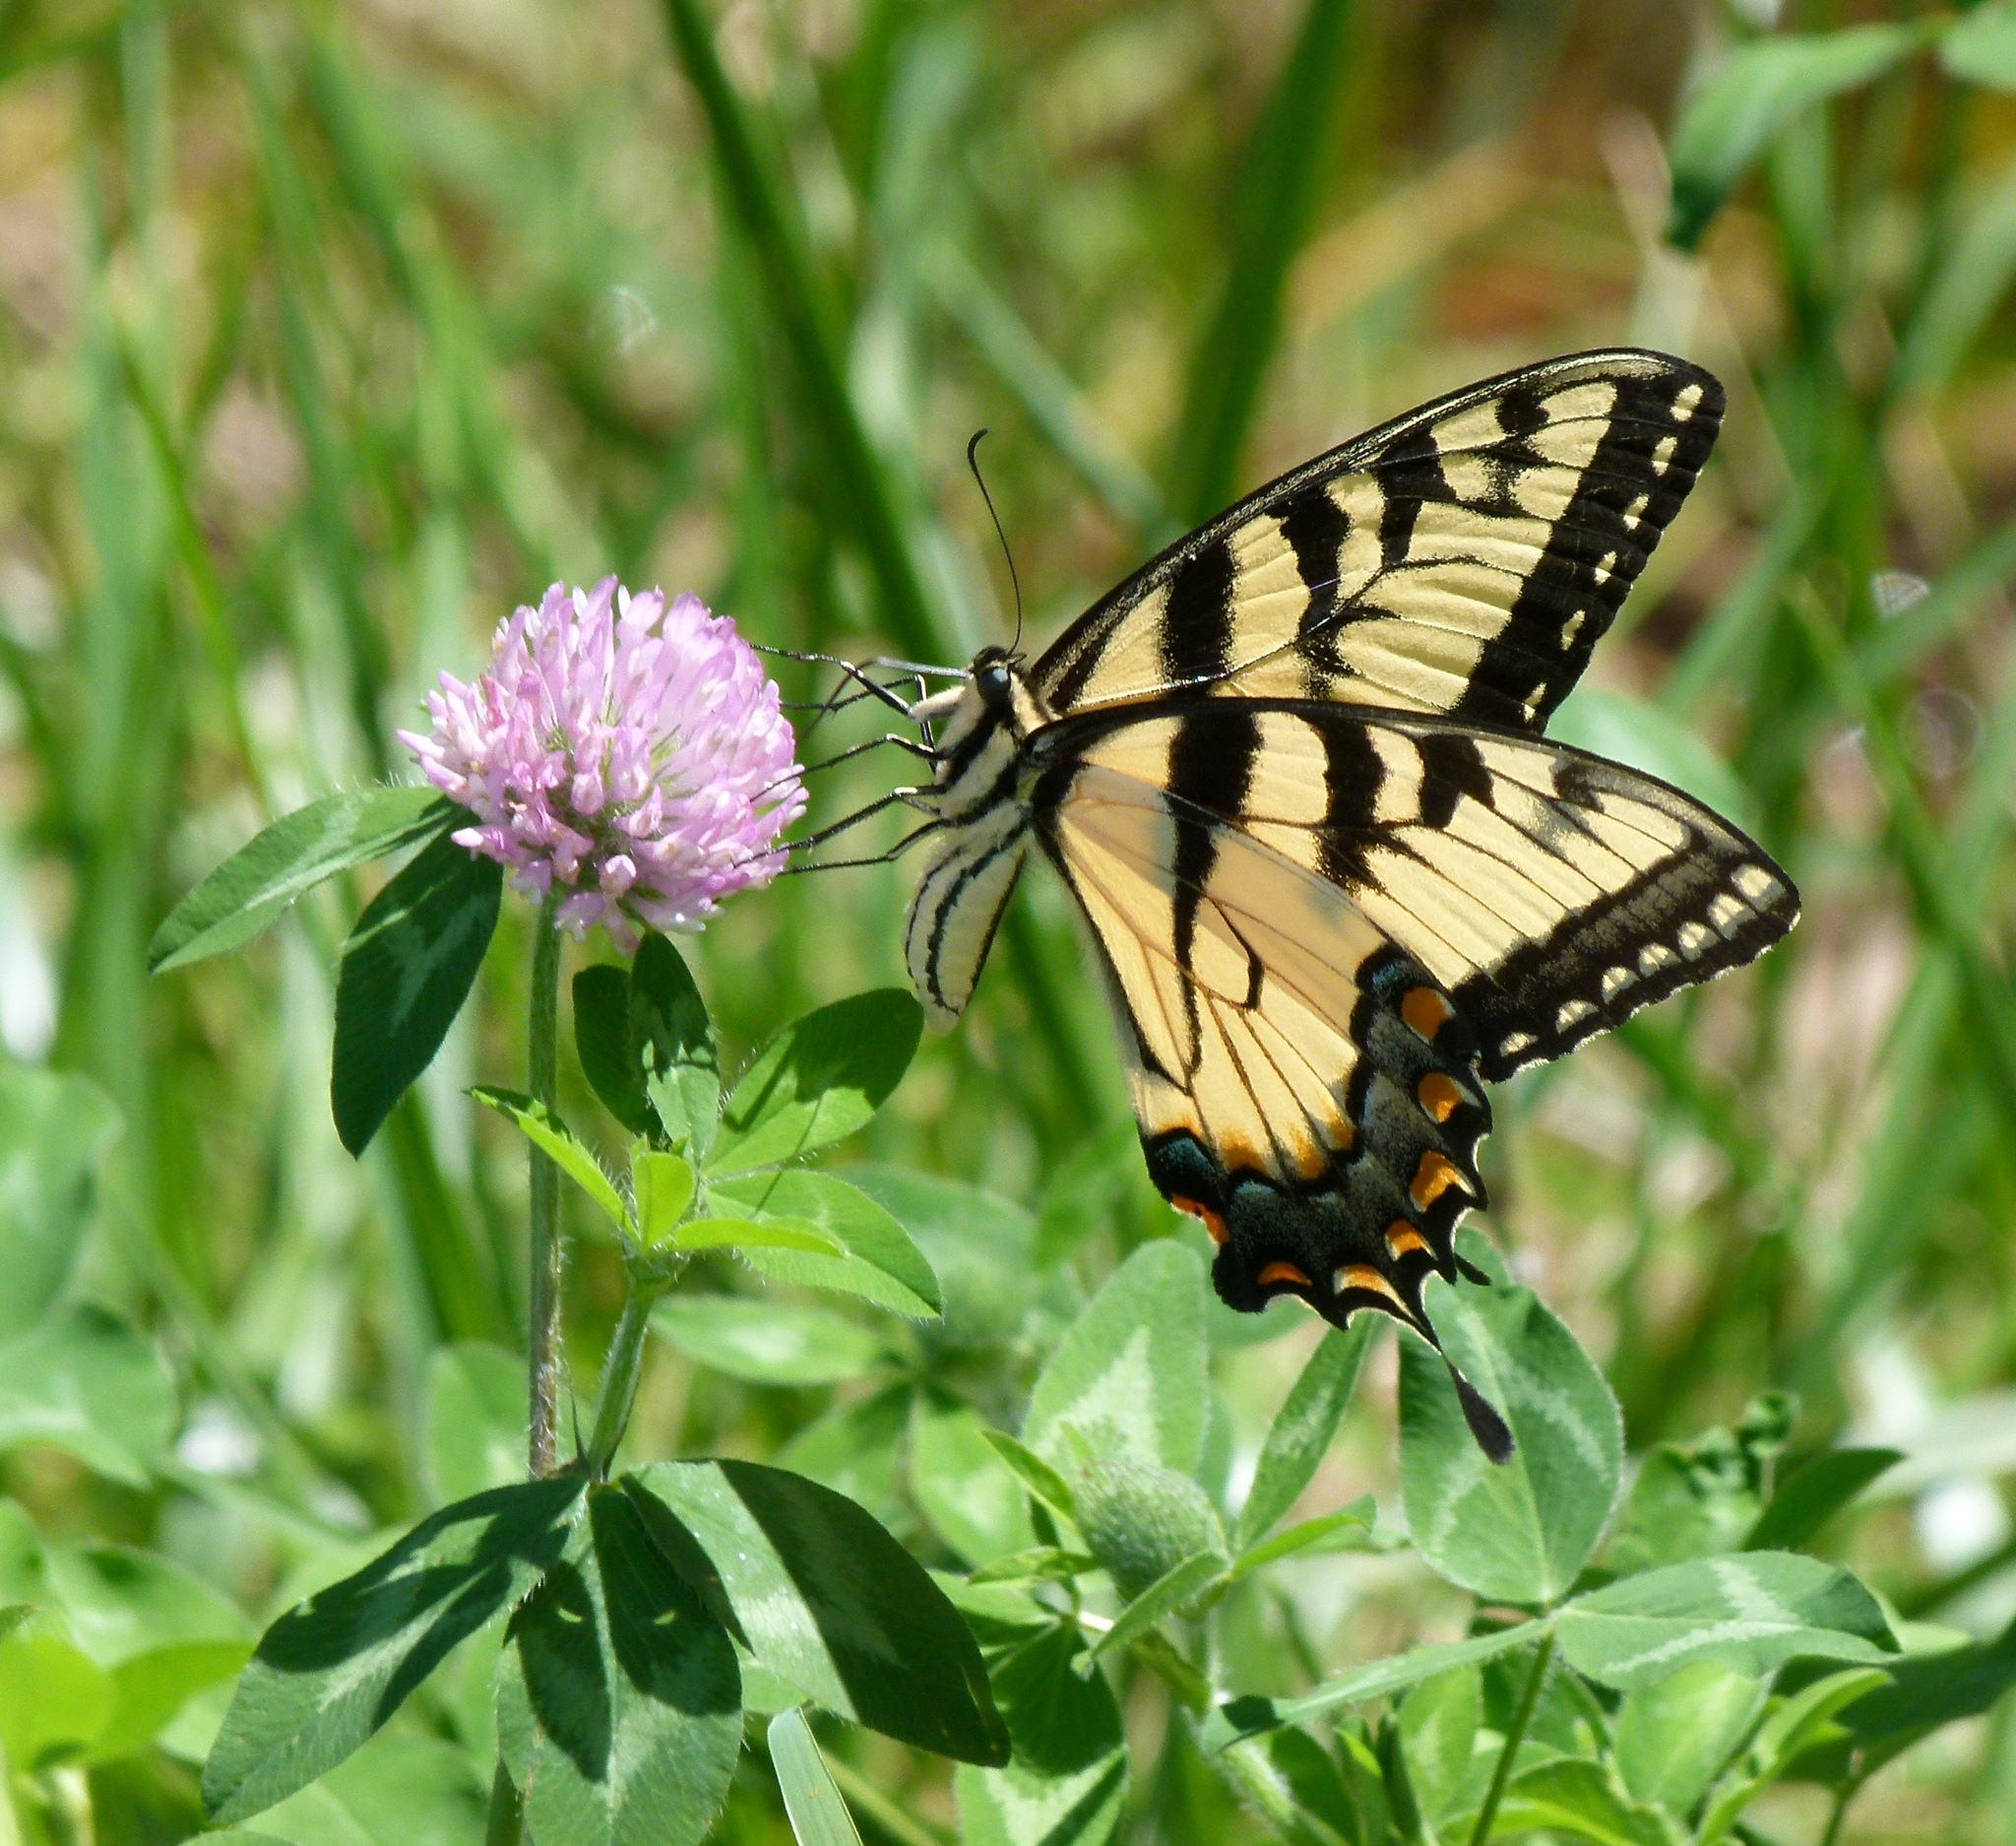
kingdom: Animalia
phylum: Arthropoda
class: Insecta
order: Lepidoptera
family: Papilionidae
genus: Papilio
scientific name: Papilio glaucus
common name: Tiger swallowtail
